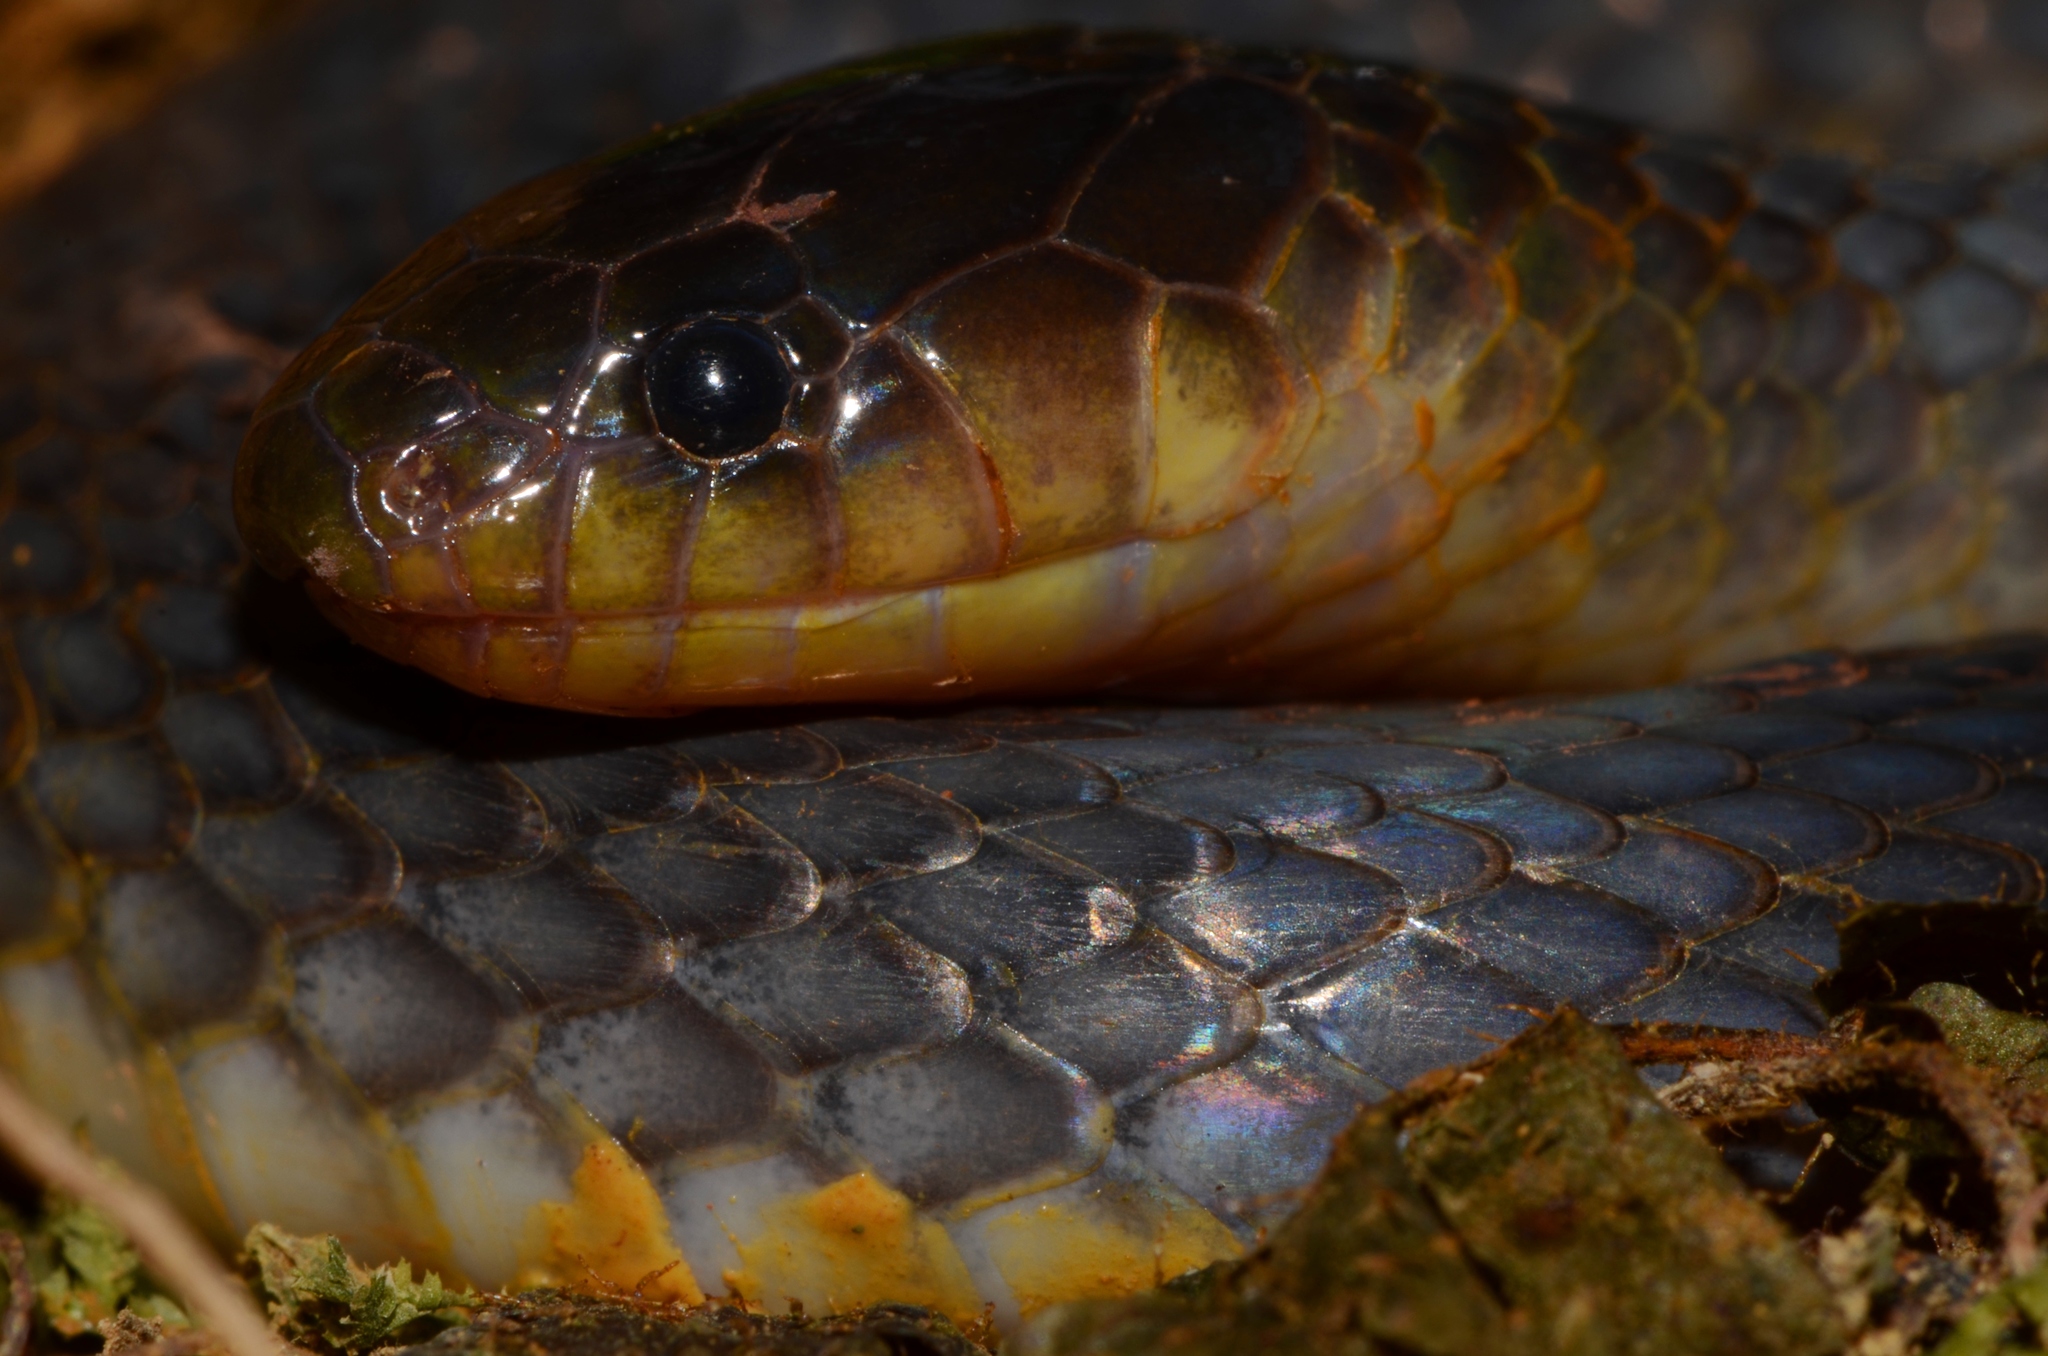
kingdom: Animalia
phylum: Chordata
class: Squamata
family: Atractaspididae
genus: Aparallactus
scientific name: Aparallactus modestus
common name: Western forest centipede-eater
